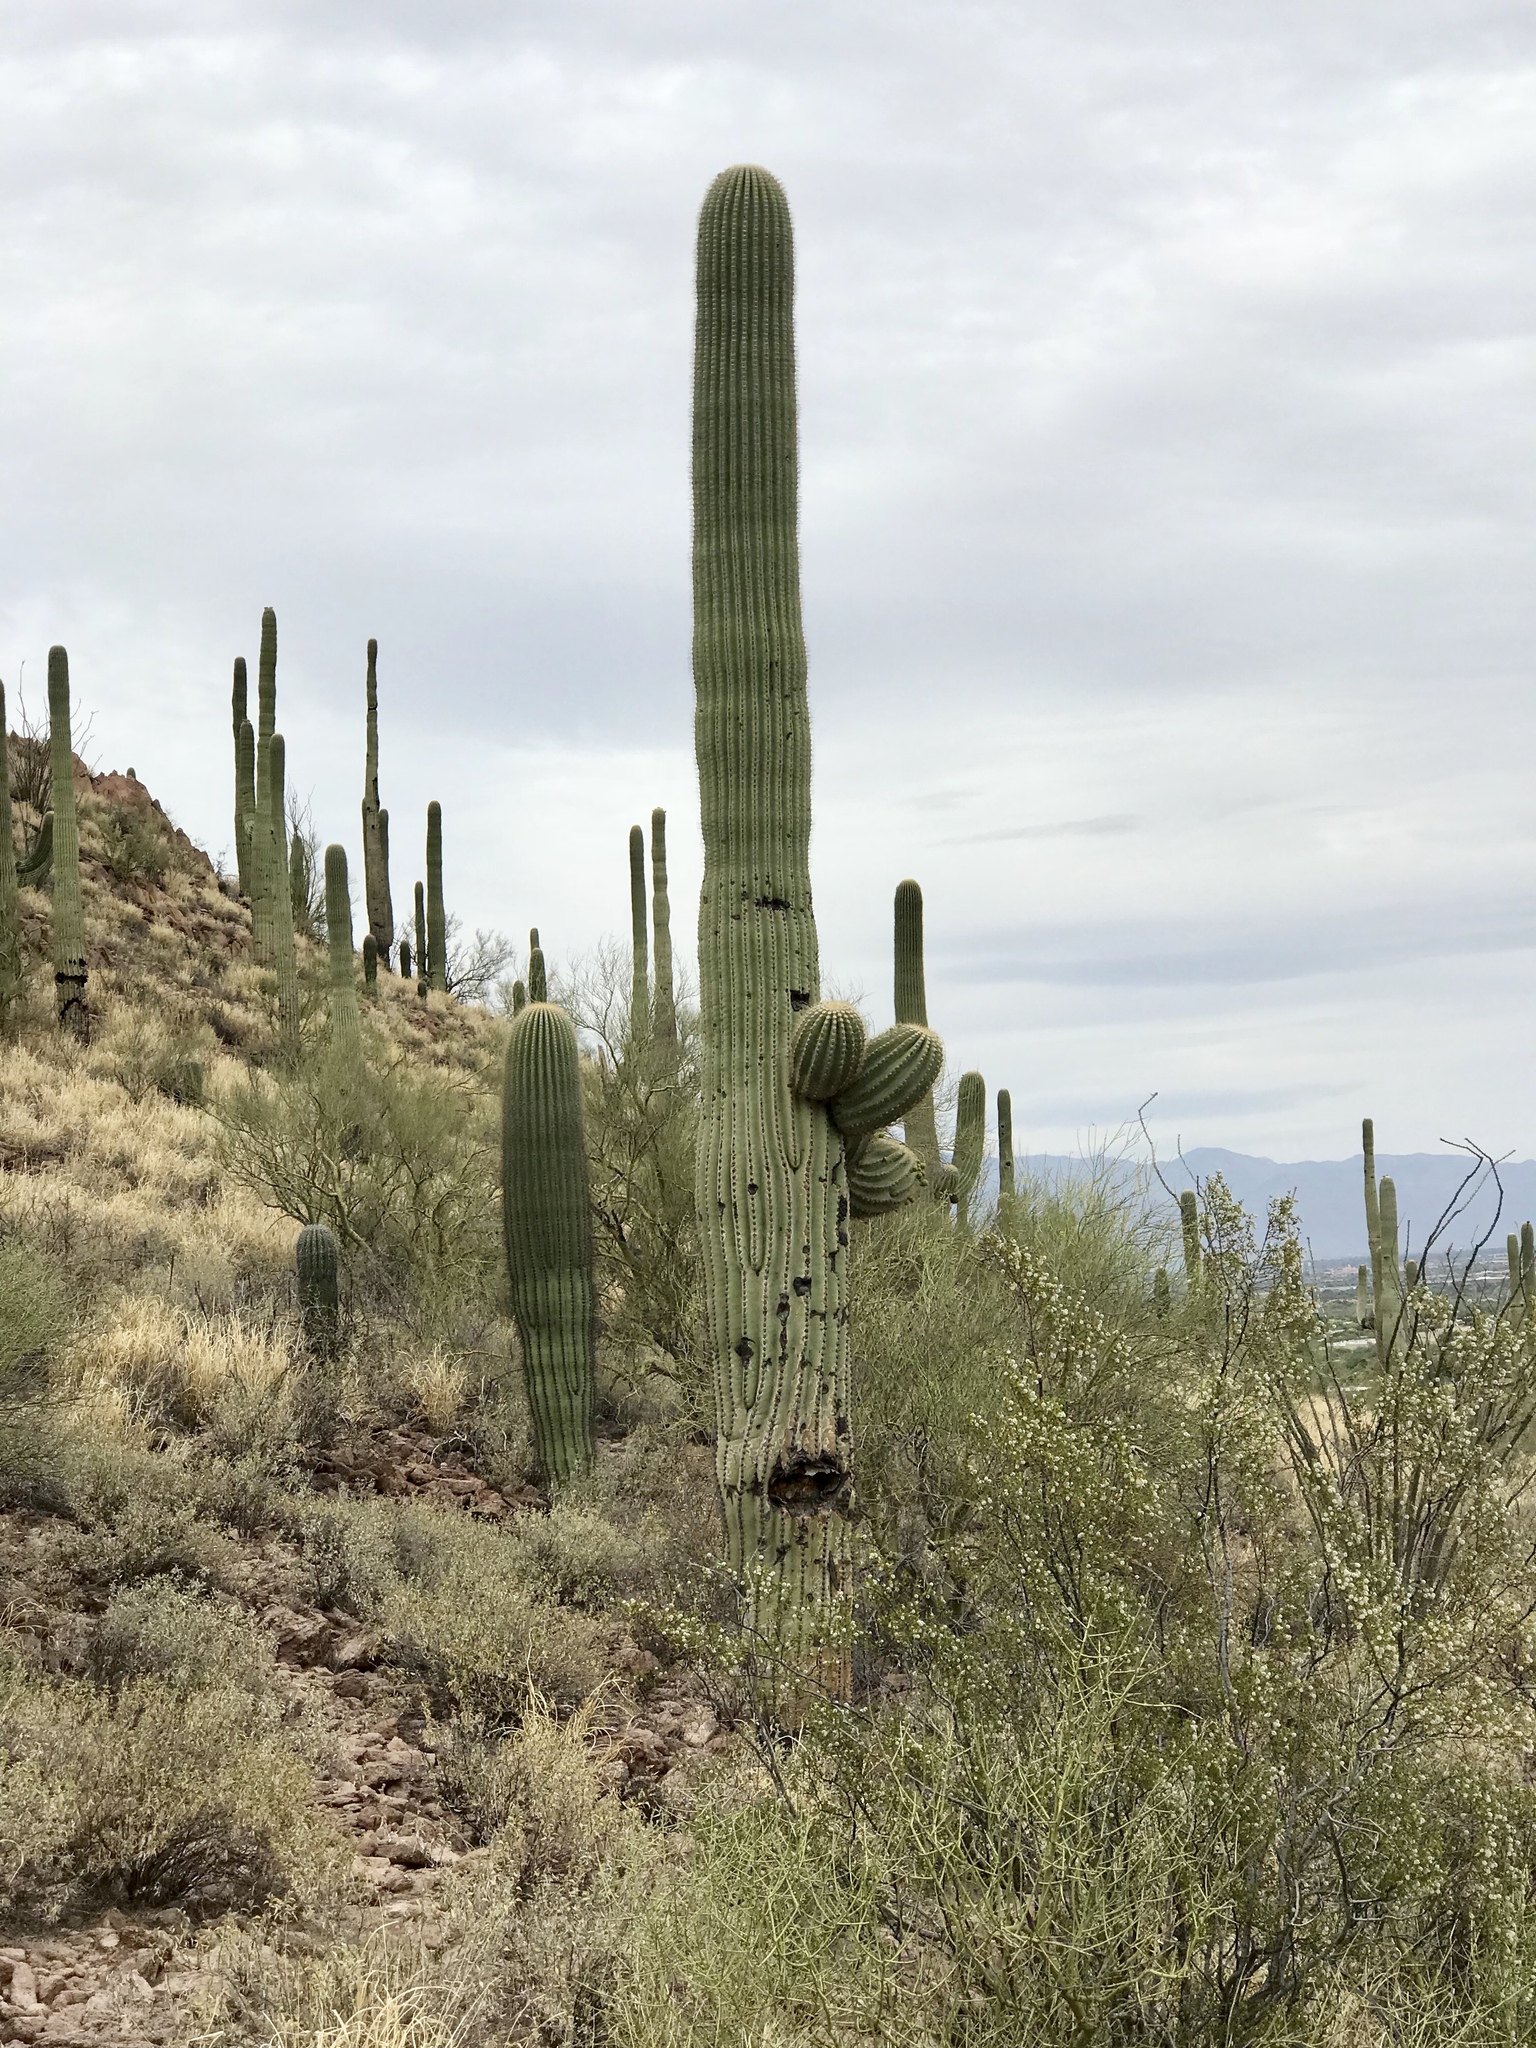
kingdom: Plantae
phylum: Tracheophyta
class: Magnoliopsida
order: Caryophyllales
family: Cactaceae
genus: Carnegiea
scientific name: Carnegiea gigantea
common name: Saguaro
